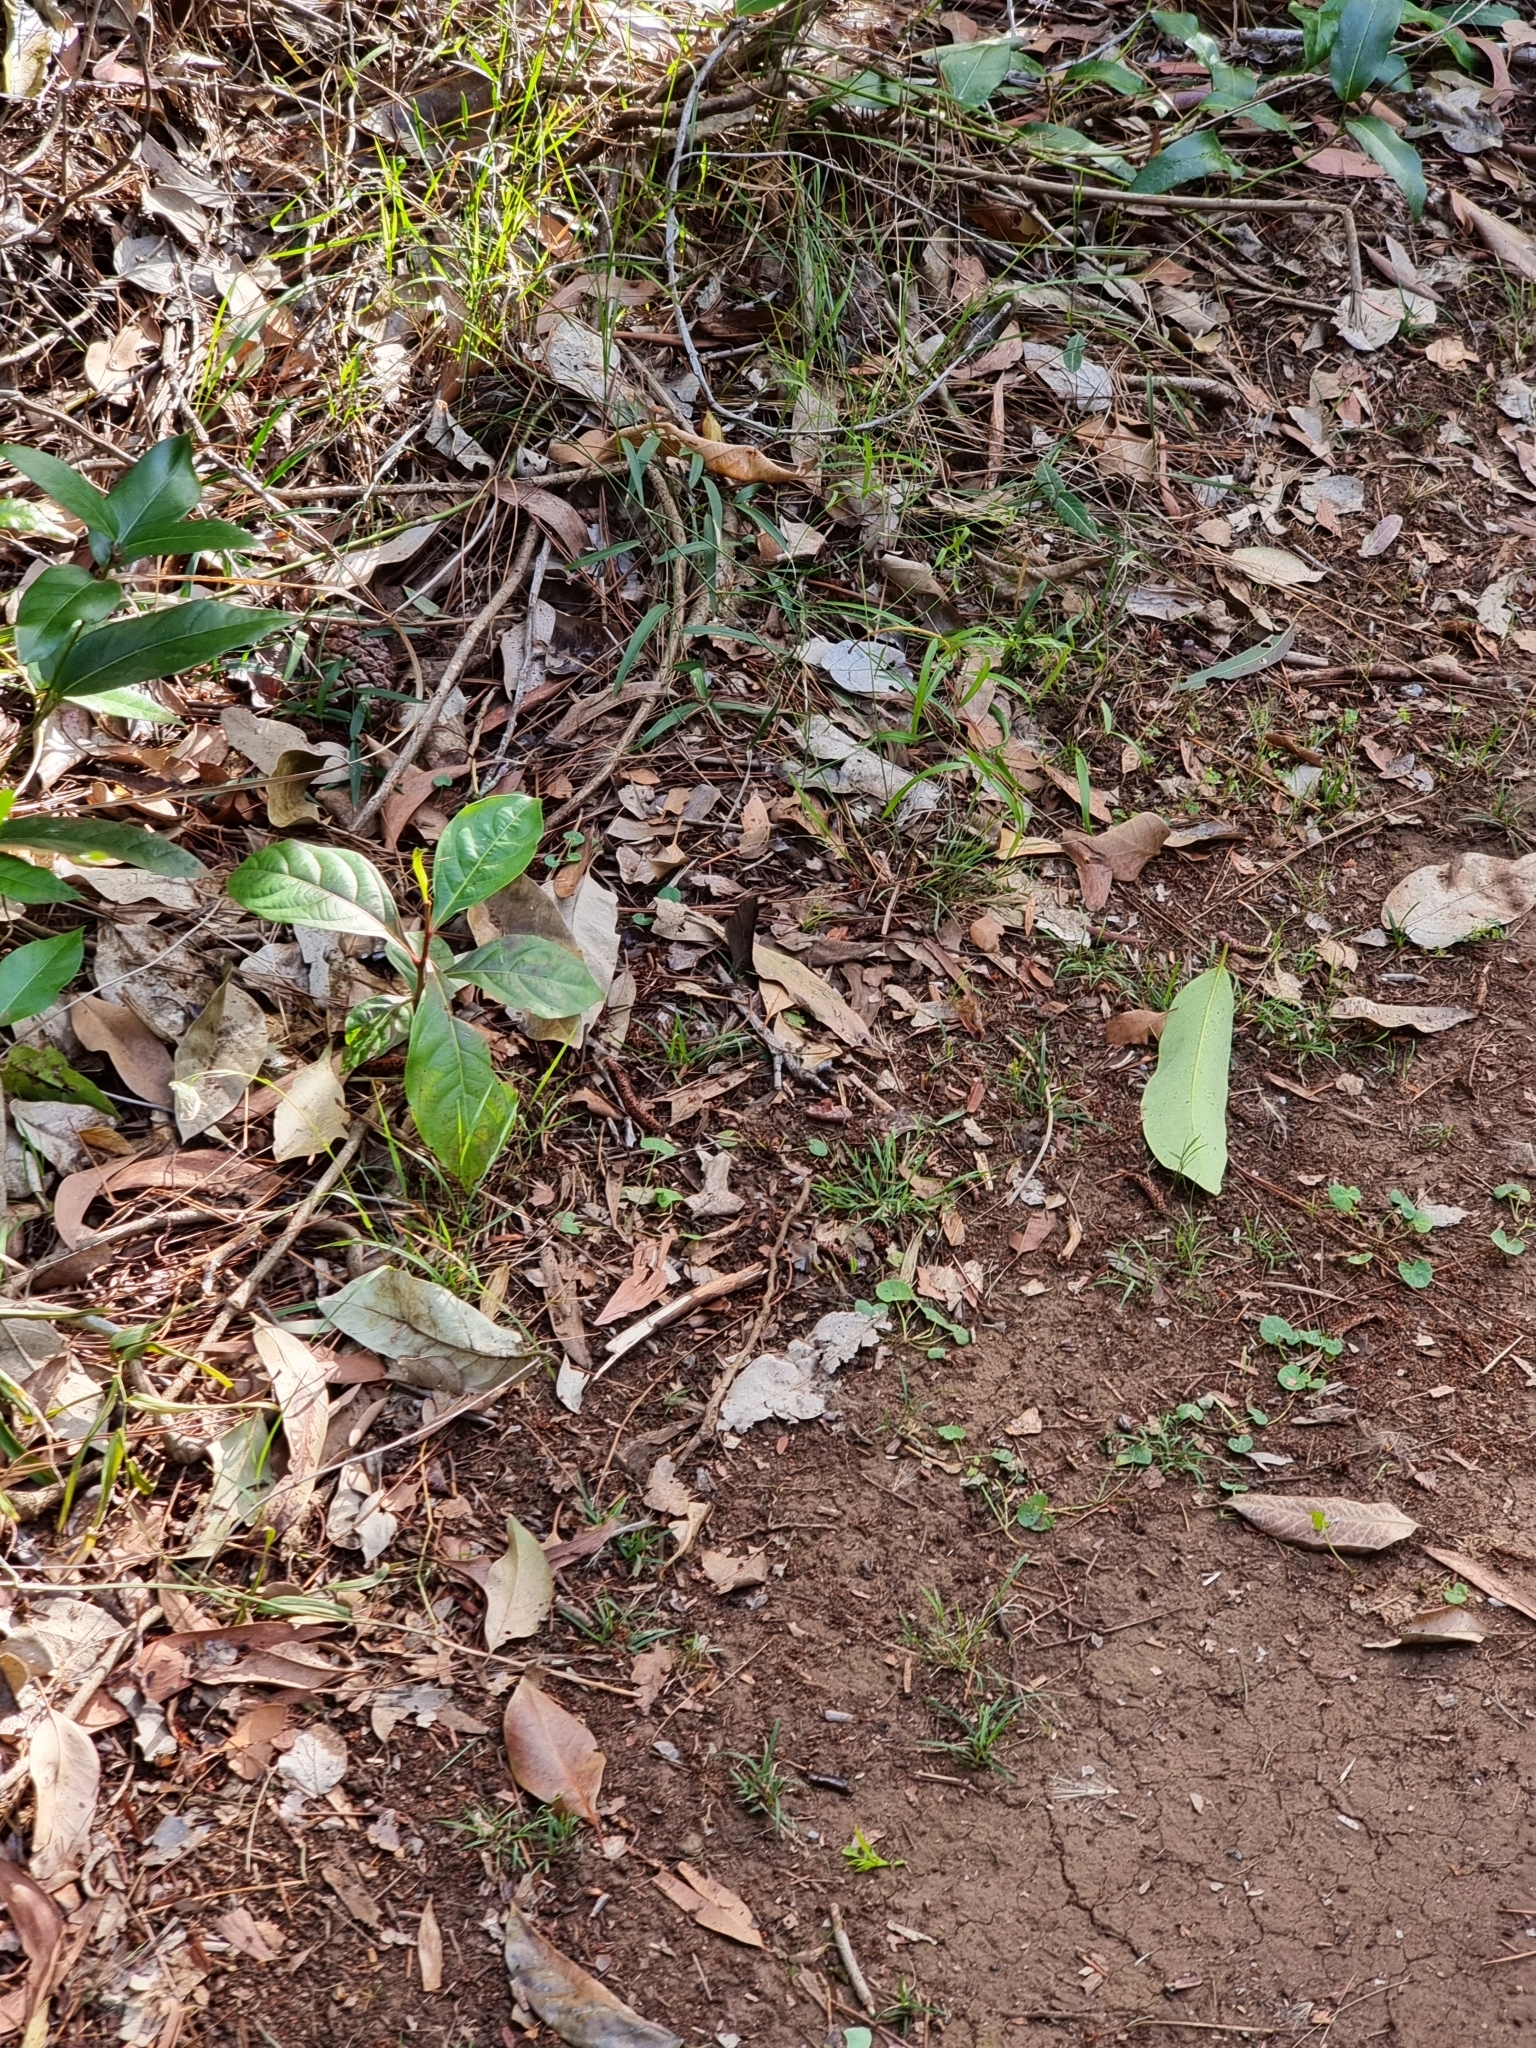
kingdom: Animalia
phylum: Arthropoda
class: Insecta
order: Lepidoptera
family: Nymphalidae
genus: Melanitis
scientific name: Melanitis leda
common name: Twilight brown
